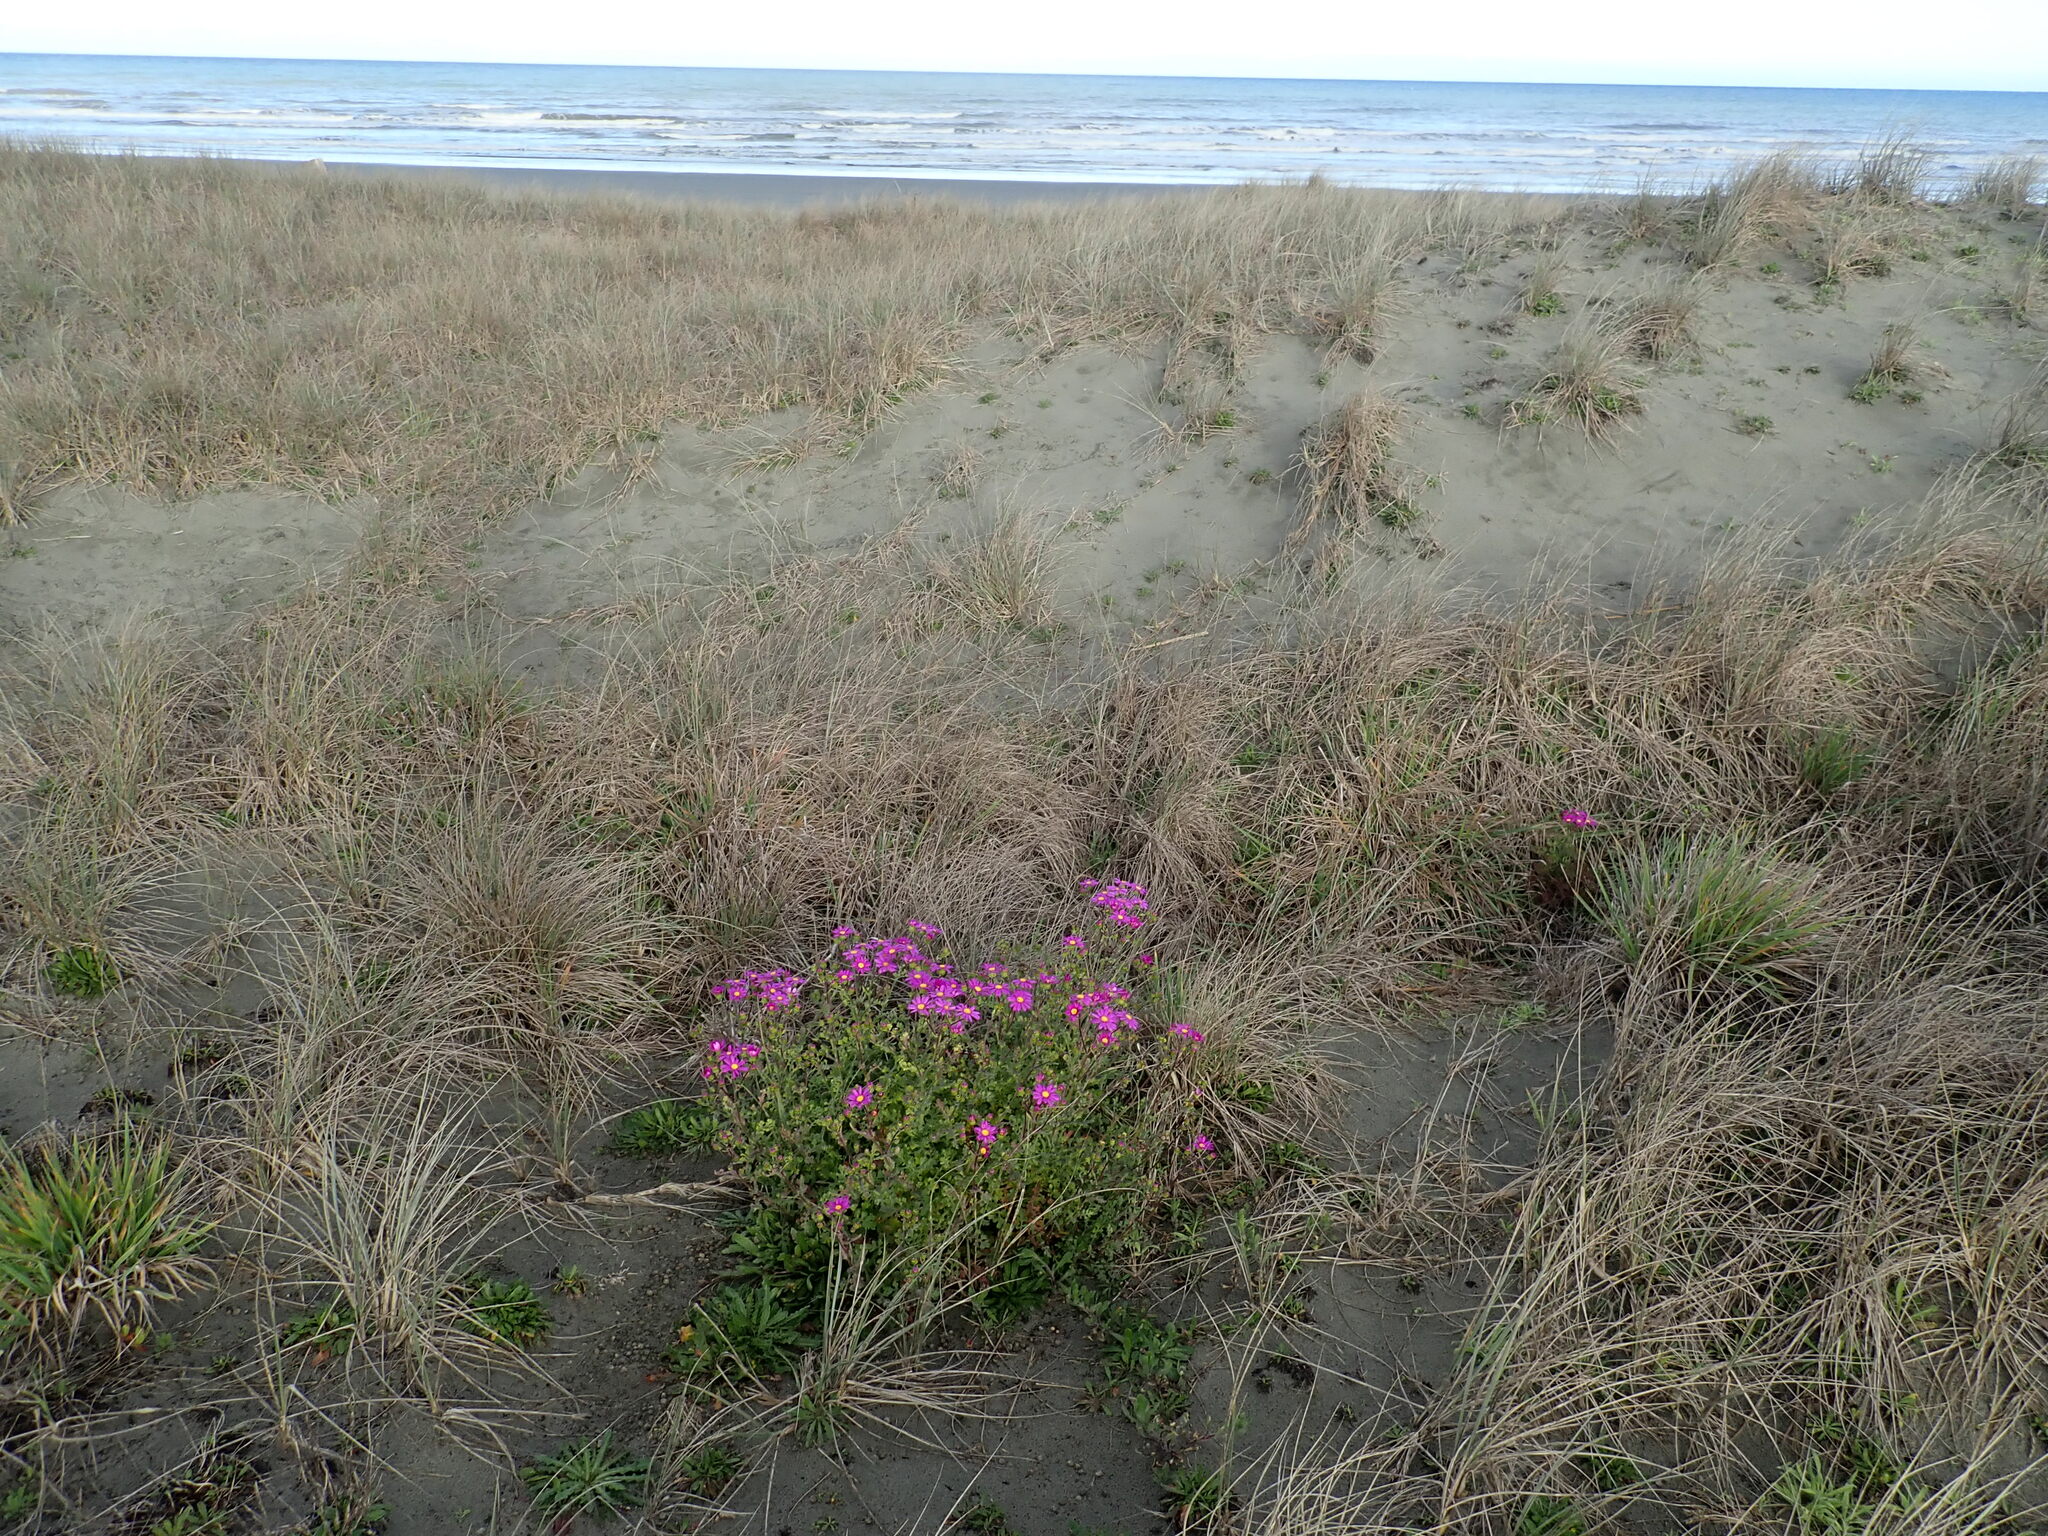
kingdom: Plantae
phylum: Tracheophyta
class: Magnoliopsida
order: Asterales
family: Asteraceae
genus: Senecio
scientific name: Senecio elegans
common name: Purple groundsel
